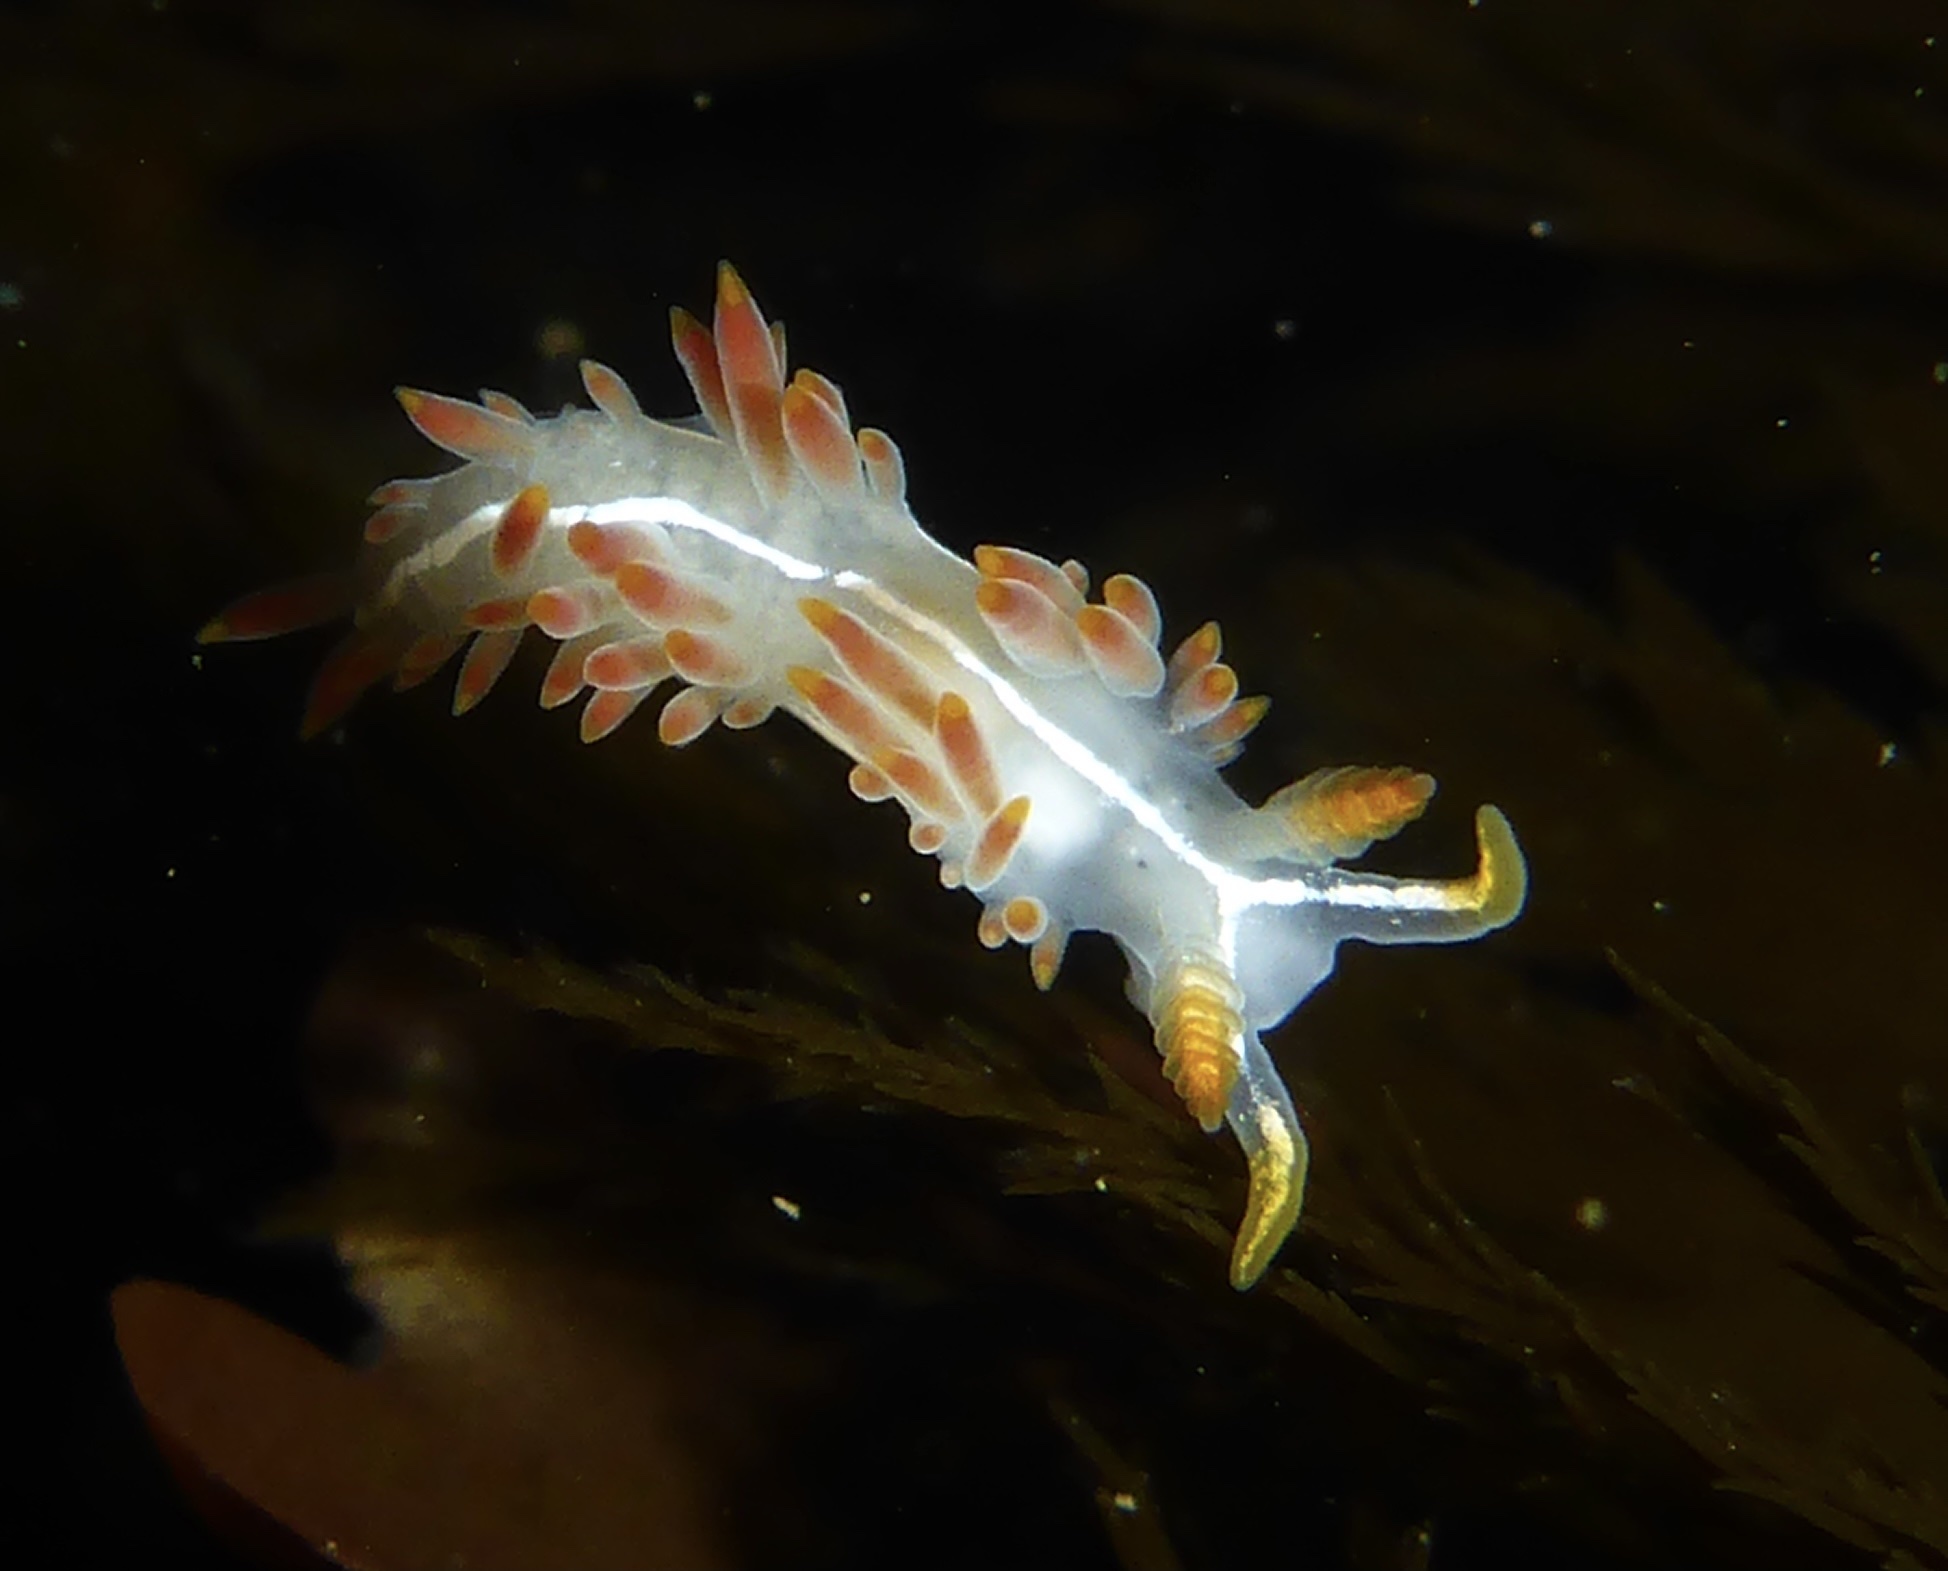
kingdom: Animalia
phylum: Mollusca
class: Gastropoda
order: Nudibranchia
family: Coryphellidae
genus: Coryphella
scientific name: Coryphella trilineata
